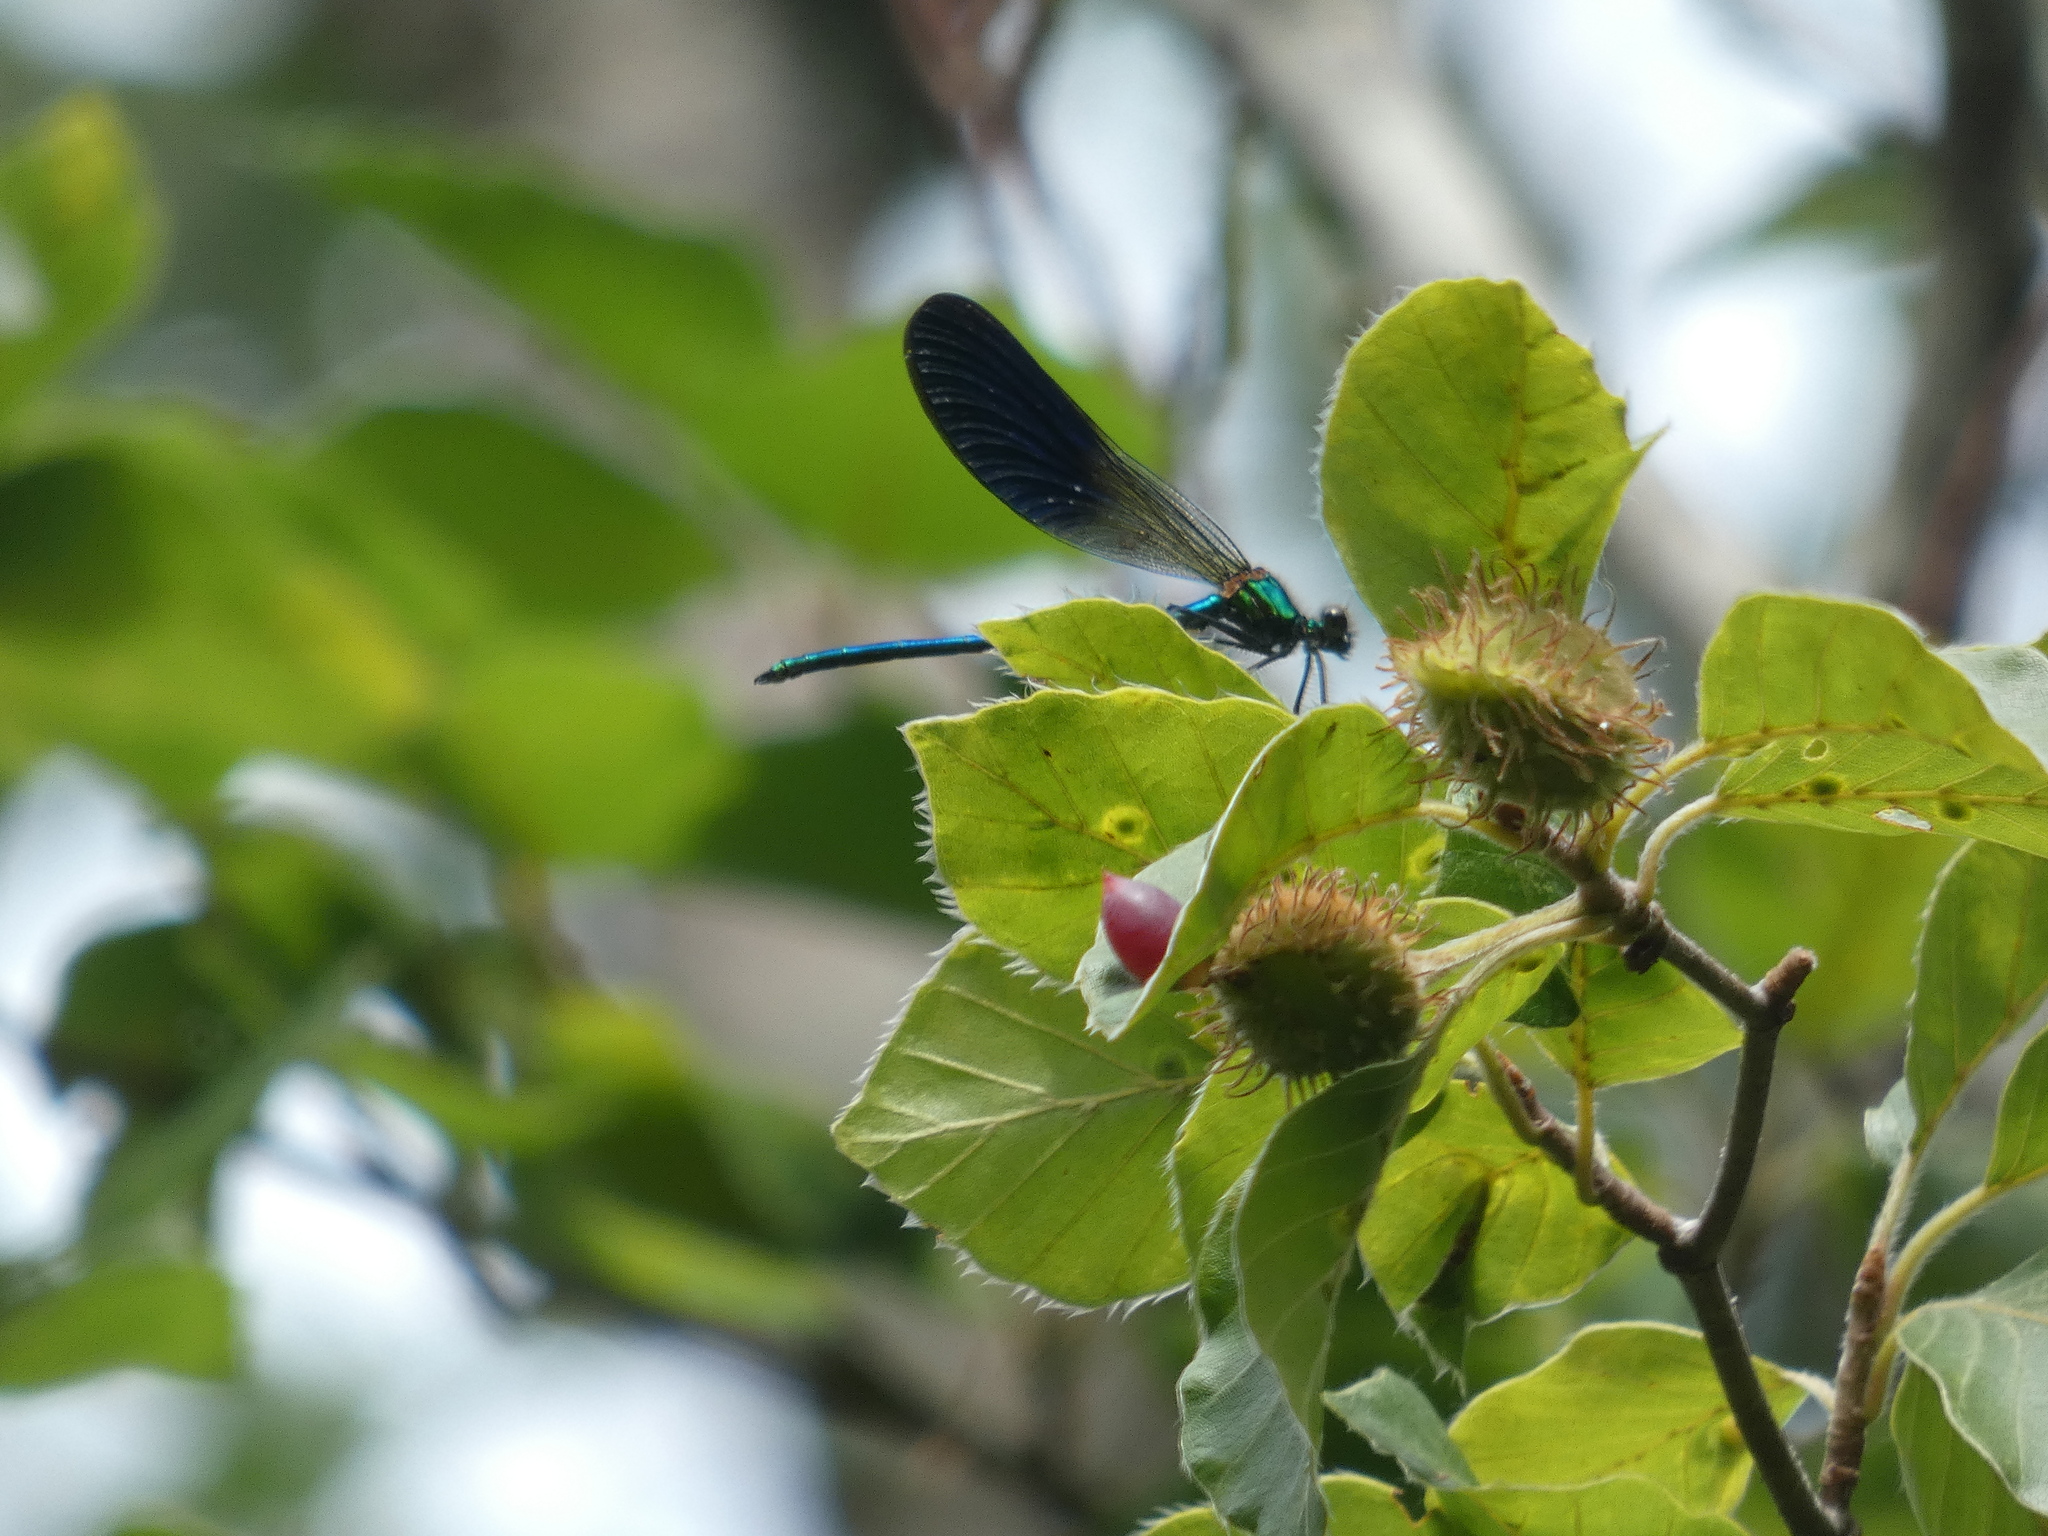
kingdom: Animalia
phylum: Arthropoda
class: Insecta
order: Odonata
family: Calopterygidae
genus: Calopteryx
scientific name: Calopteryx xanthostoma
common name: Western demoiselle
